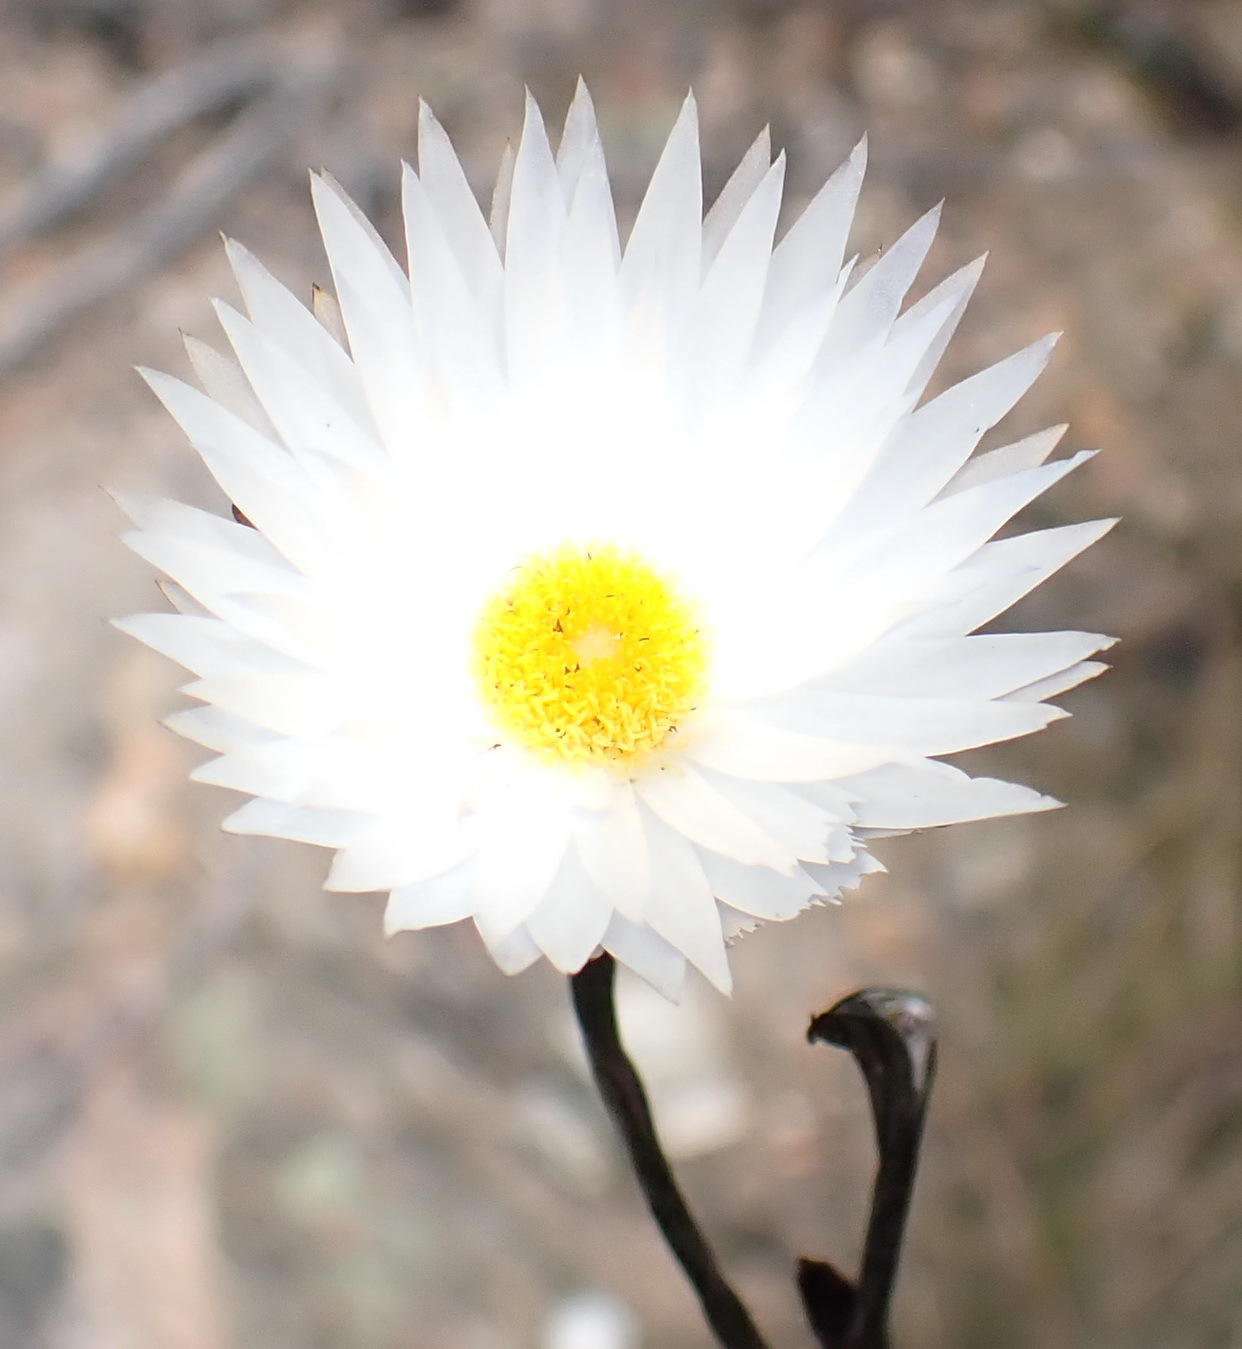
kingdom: Plantae
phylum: Tracheophyta
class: Magnoliopsida
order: Asterales
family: Asteraceae
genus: Helichrysum
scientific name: Helichrysum lancifolium
